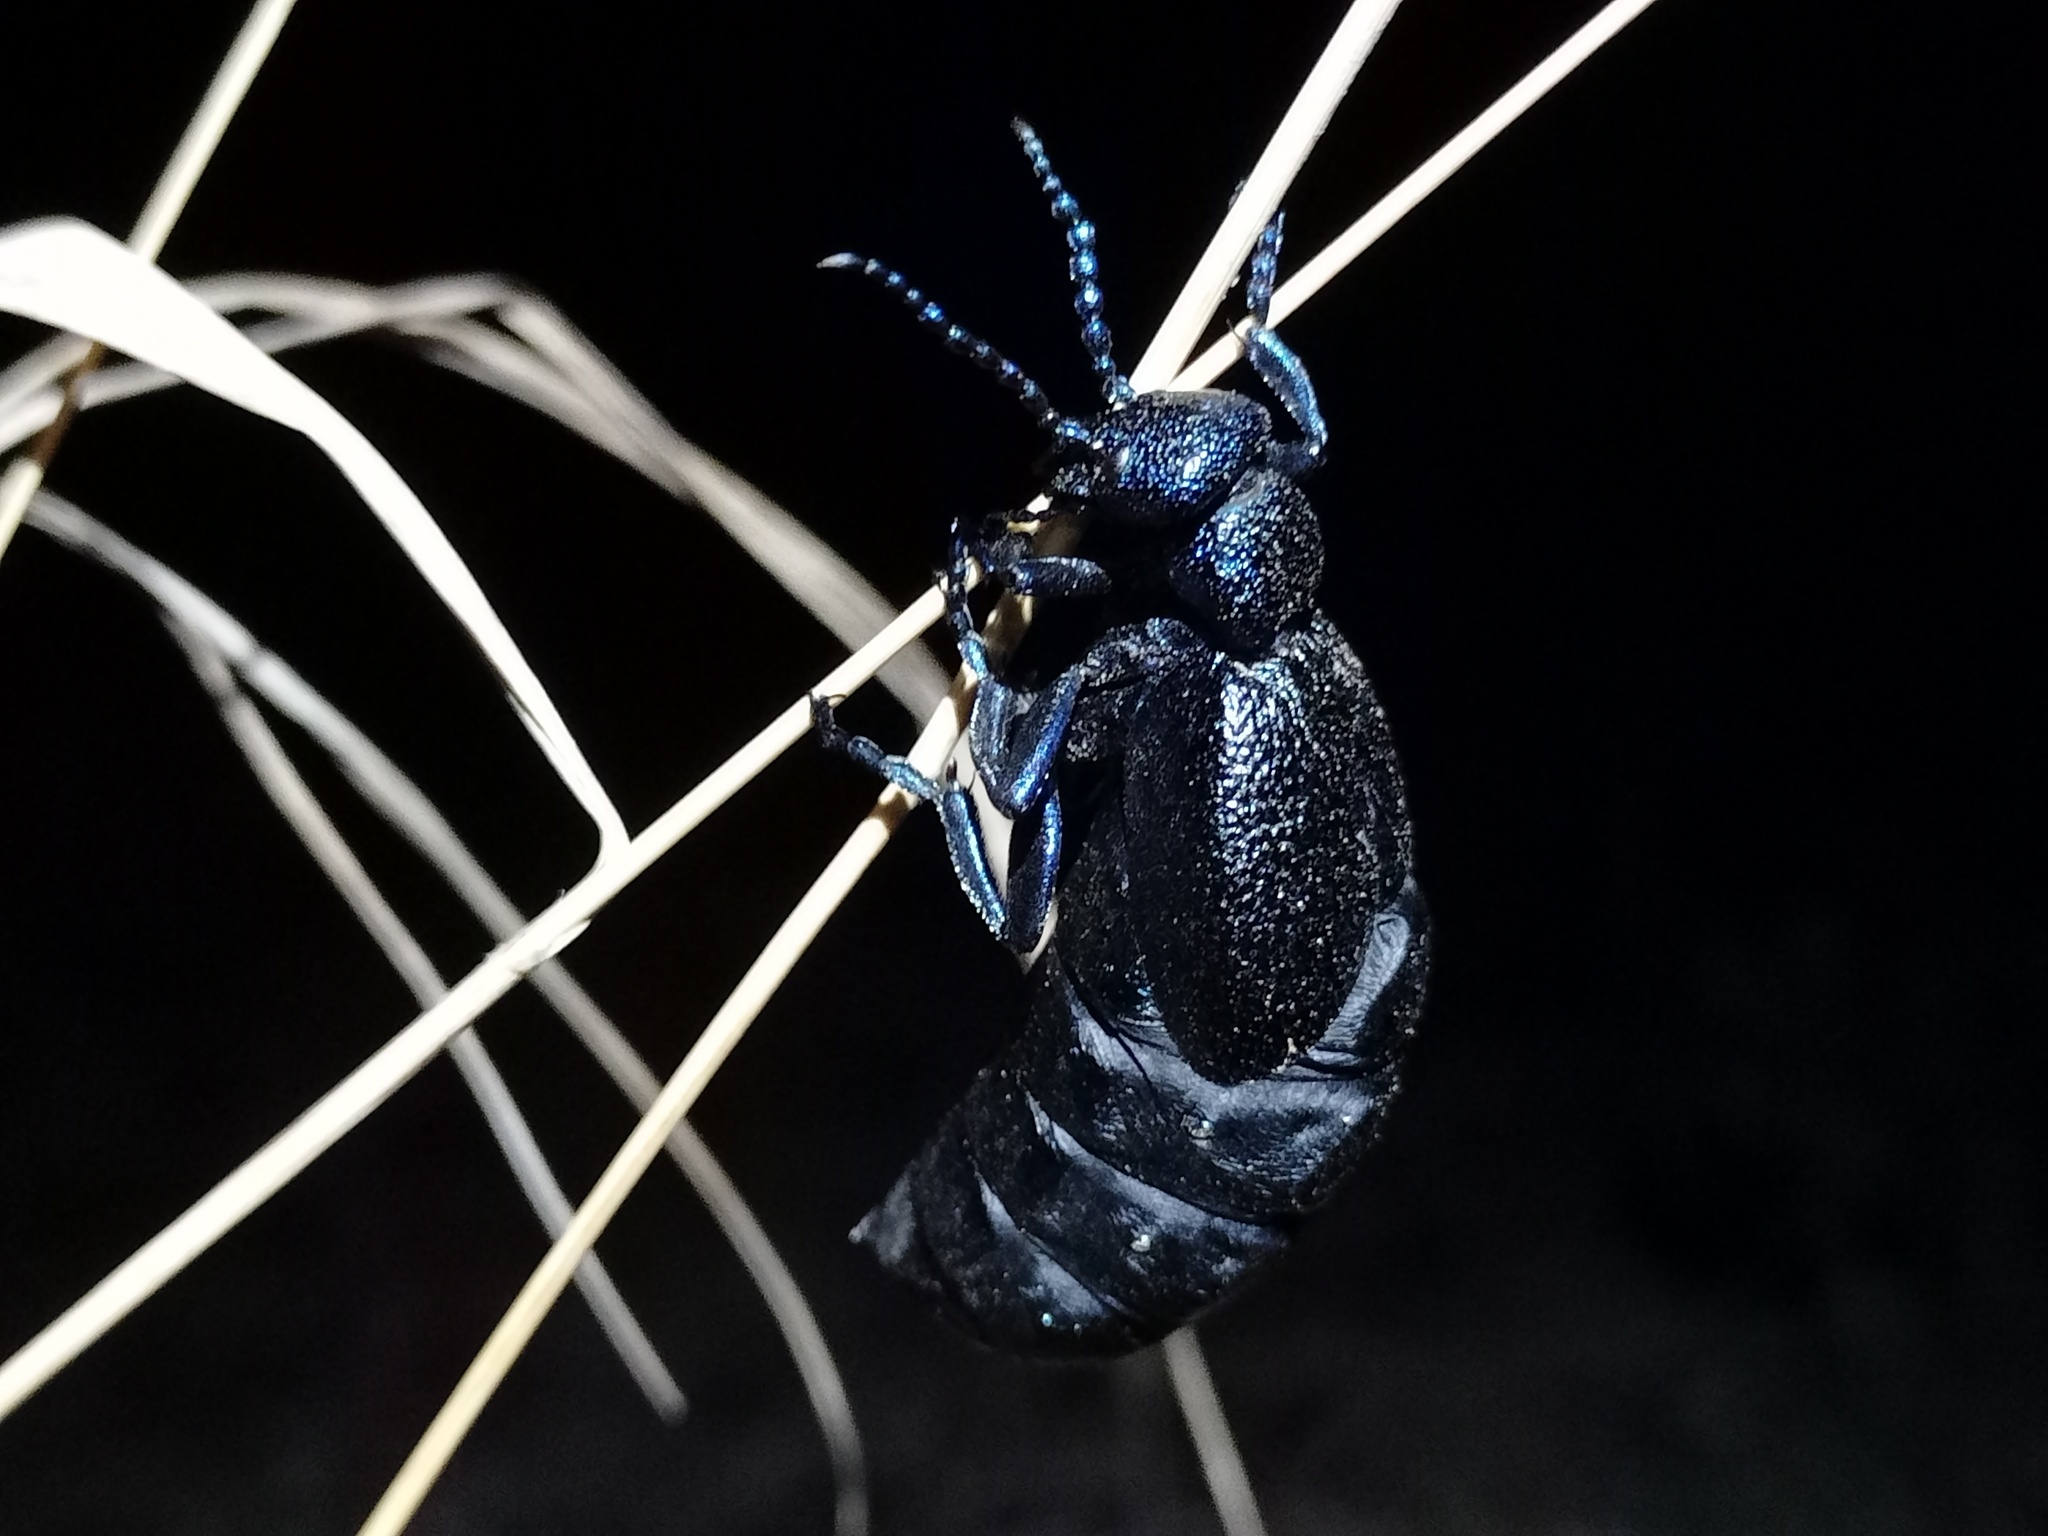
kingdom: Animalia
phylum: Arthropoda
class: Insecta
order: Coleoptera
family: Meloidae
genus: Meloe
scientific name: Meloe proscarabaeus
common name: Black oil-beetle
